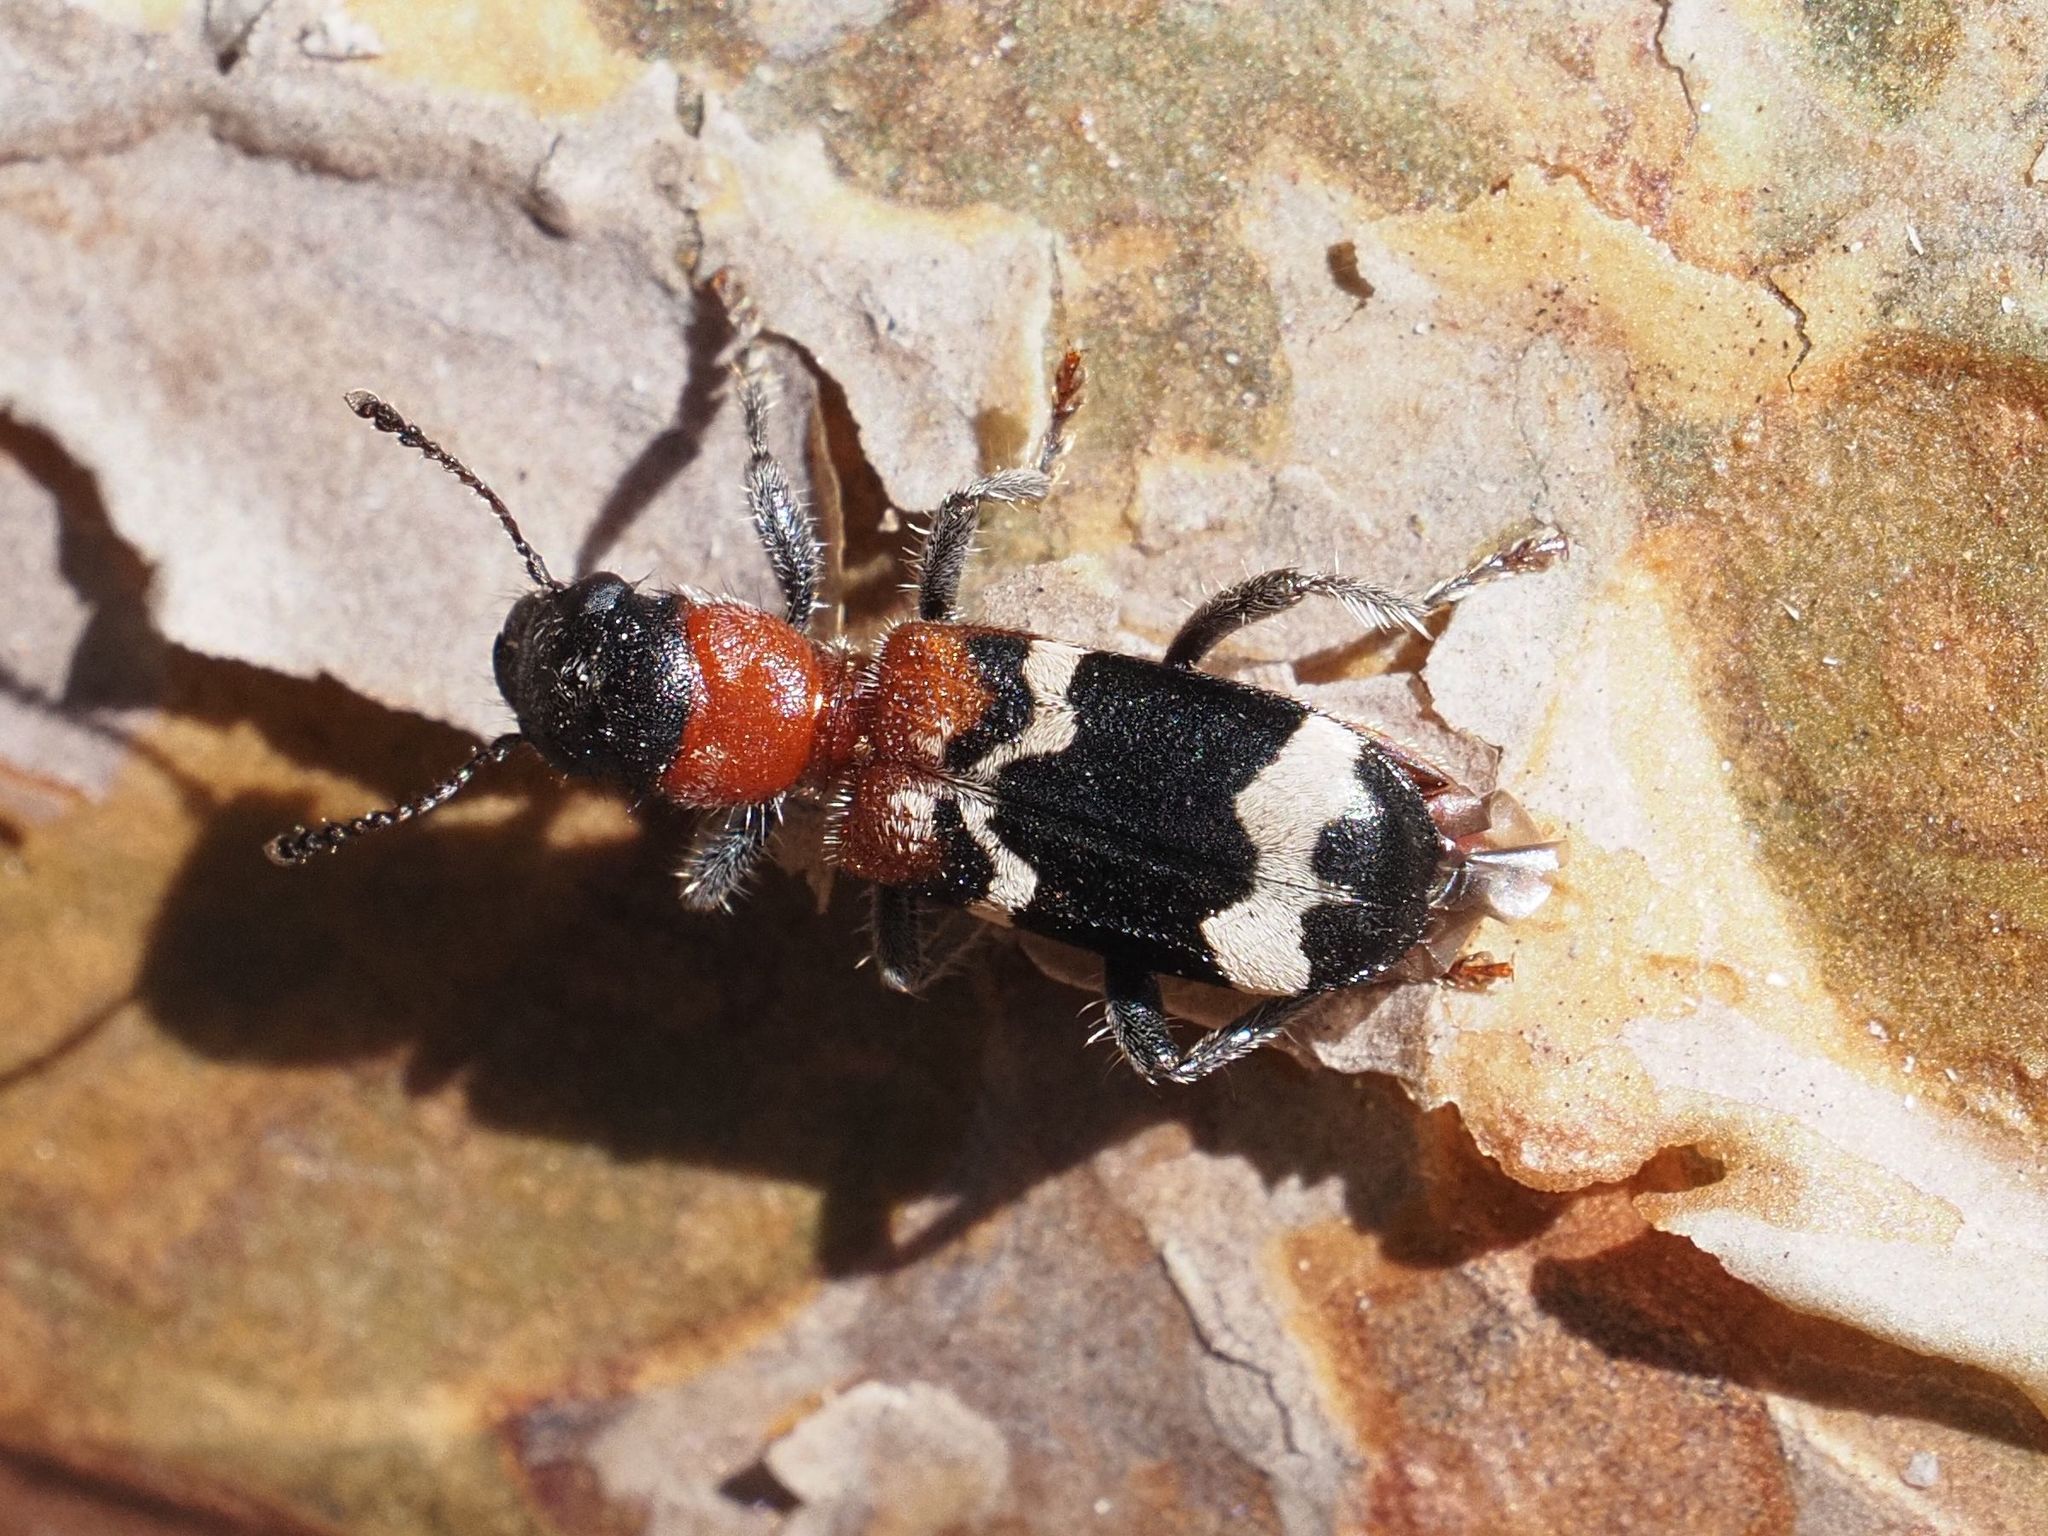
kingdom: Animalia
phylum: Arthropoda
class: Insecta
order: Coleoptera
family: Cleridae
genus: Thanasimus
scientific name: Thanasimus formicarius
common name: Ant beetle
